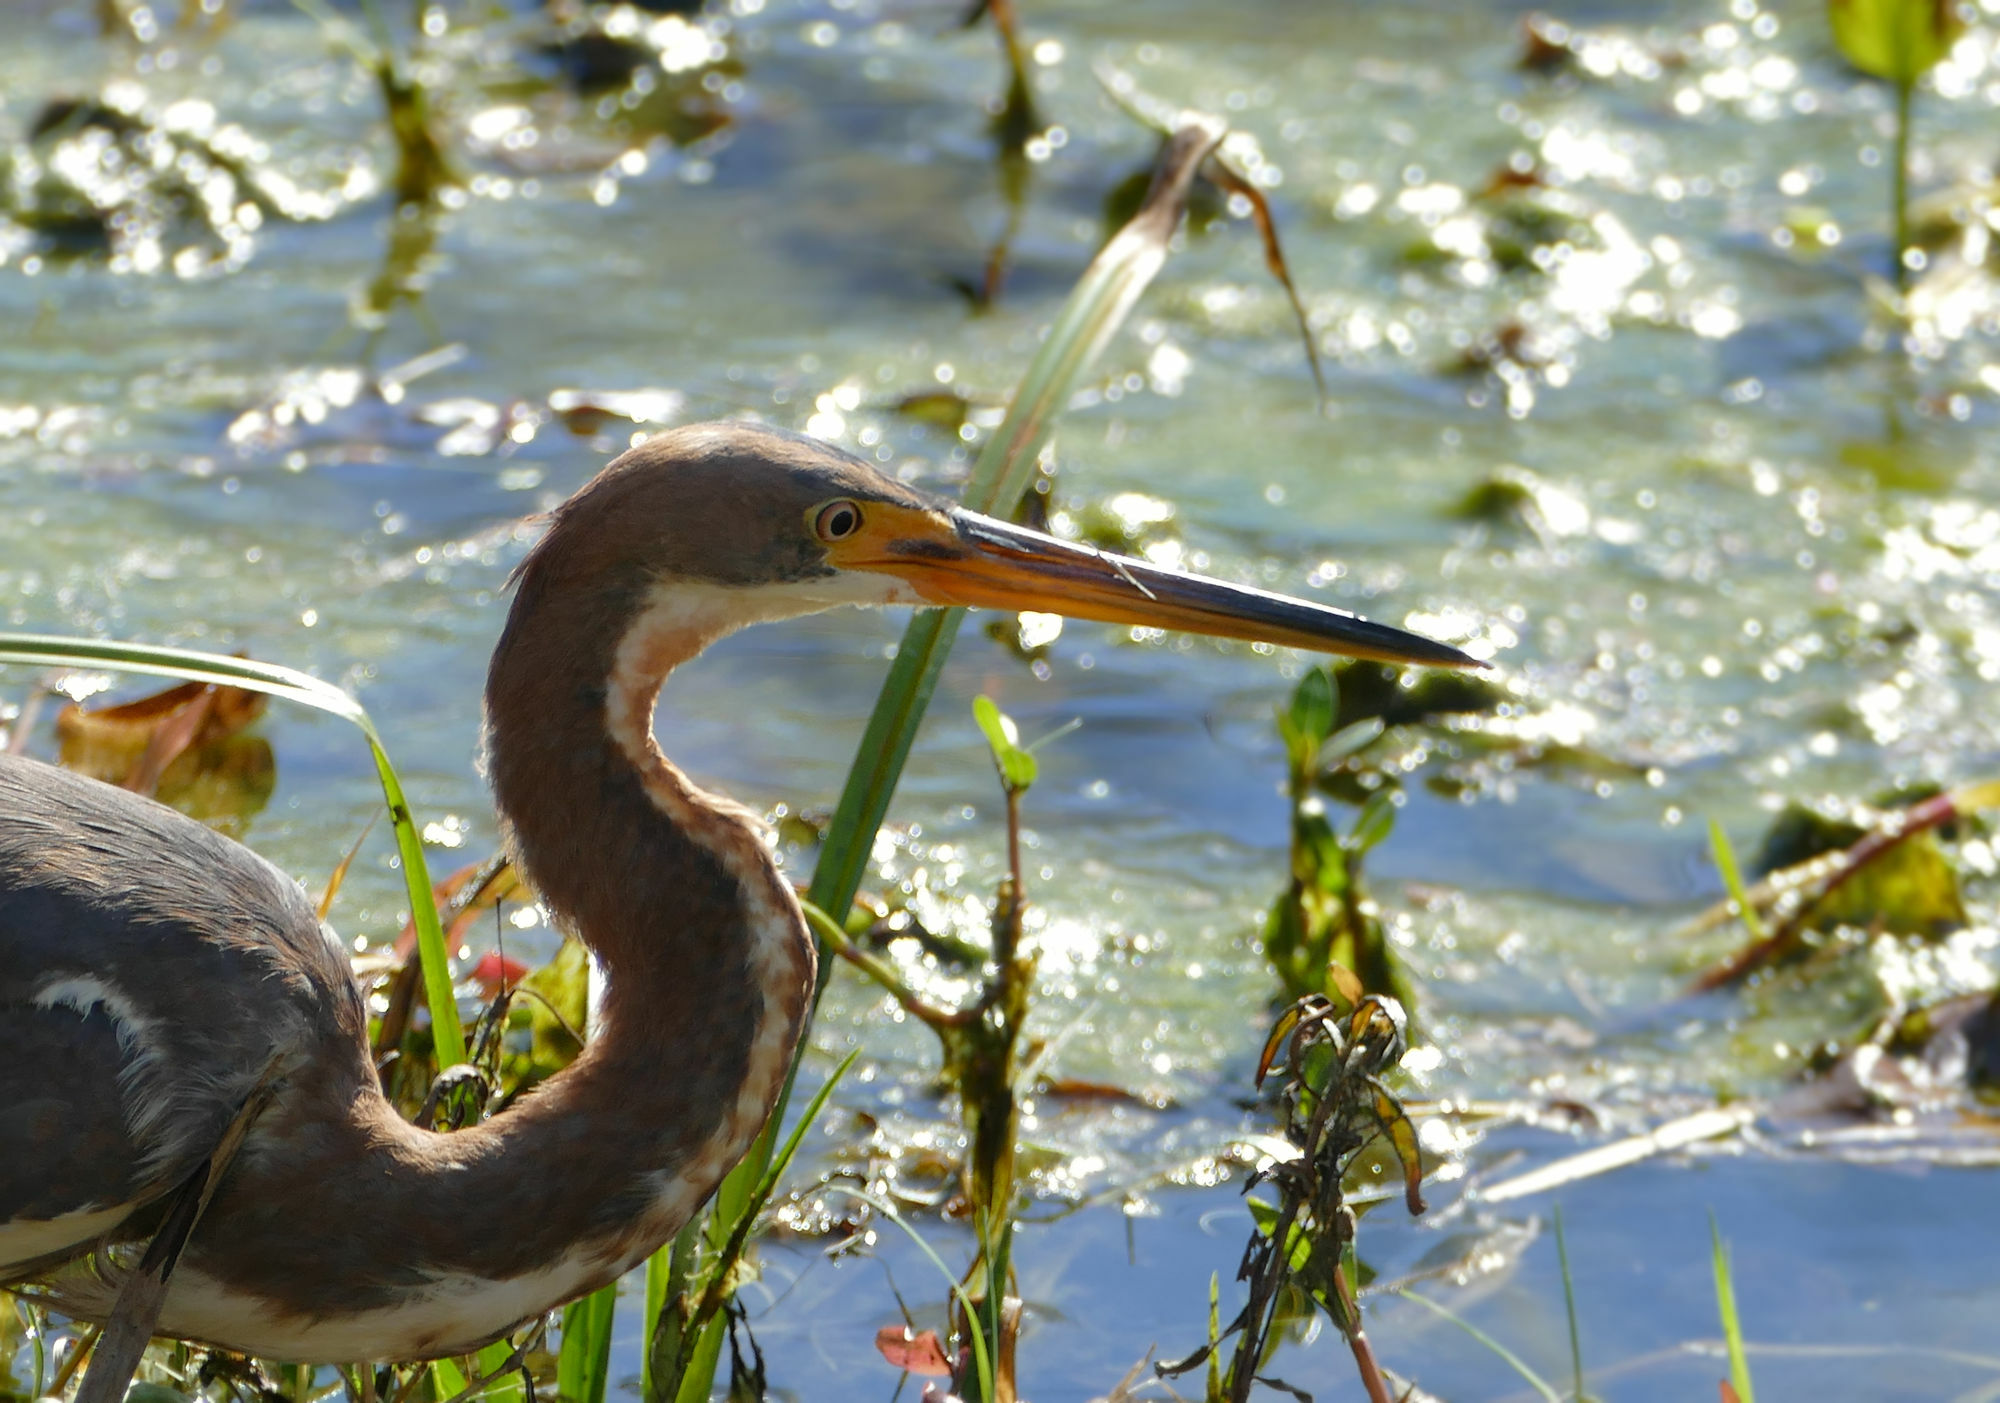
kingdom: Animalia
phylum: Chordata
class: Aves
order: Pelecaniformes
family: Ardeidae
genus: Egretta
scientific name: Egretta tricolor
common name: Tricolored heron
